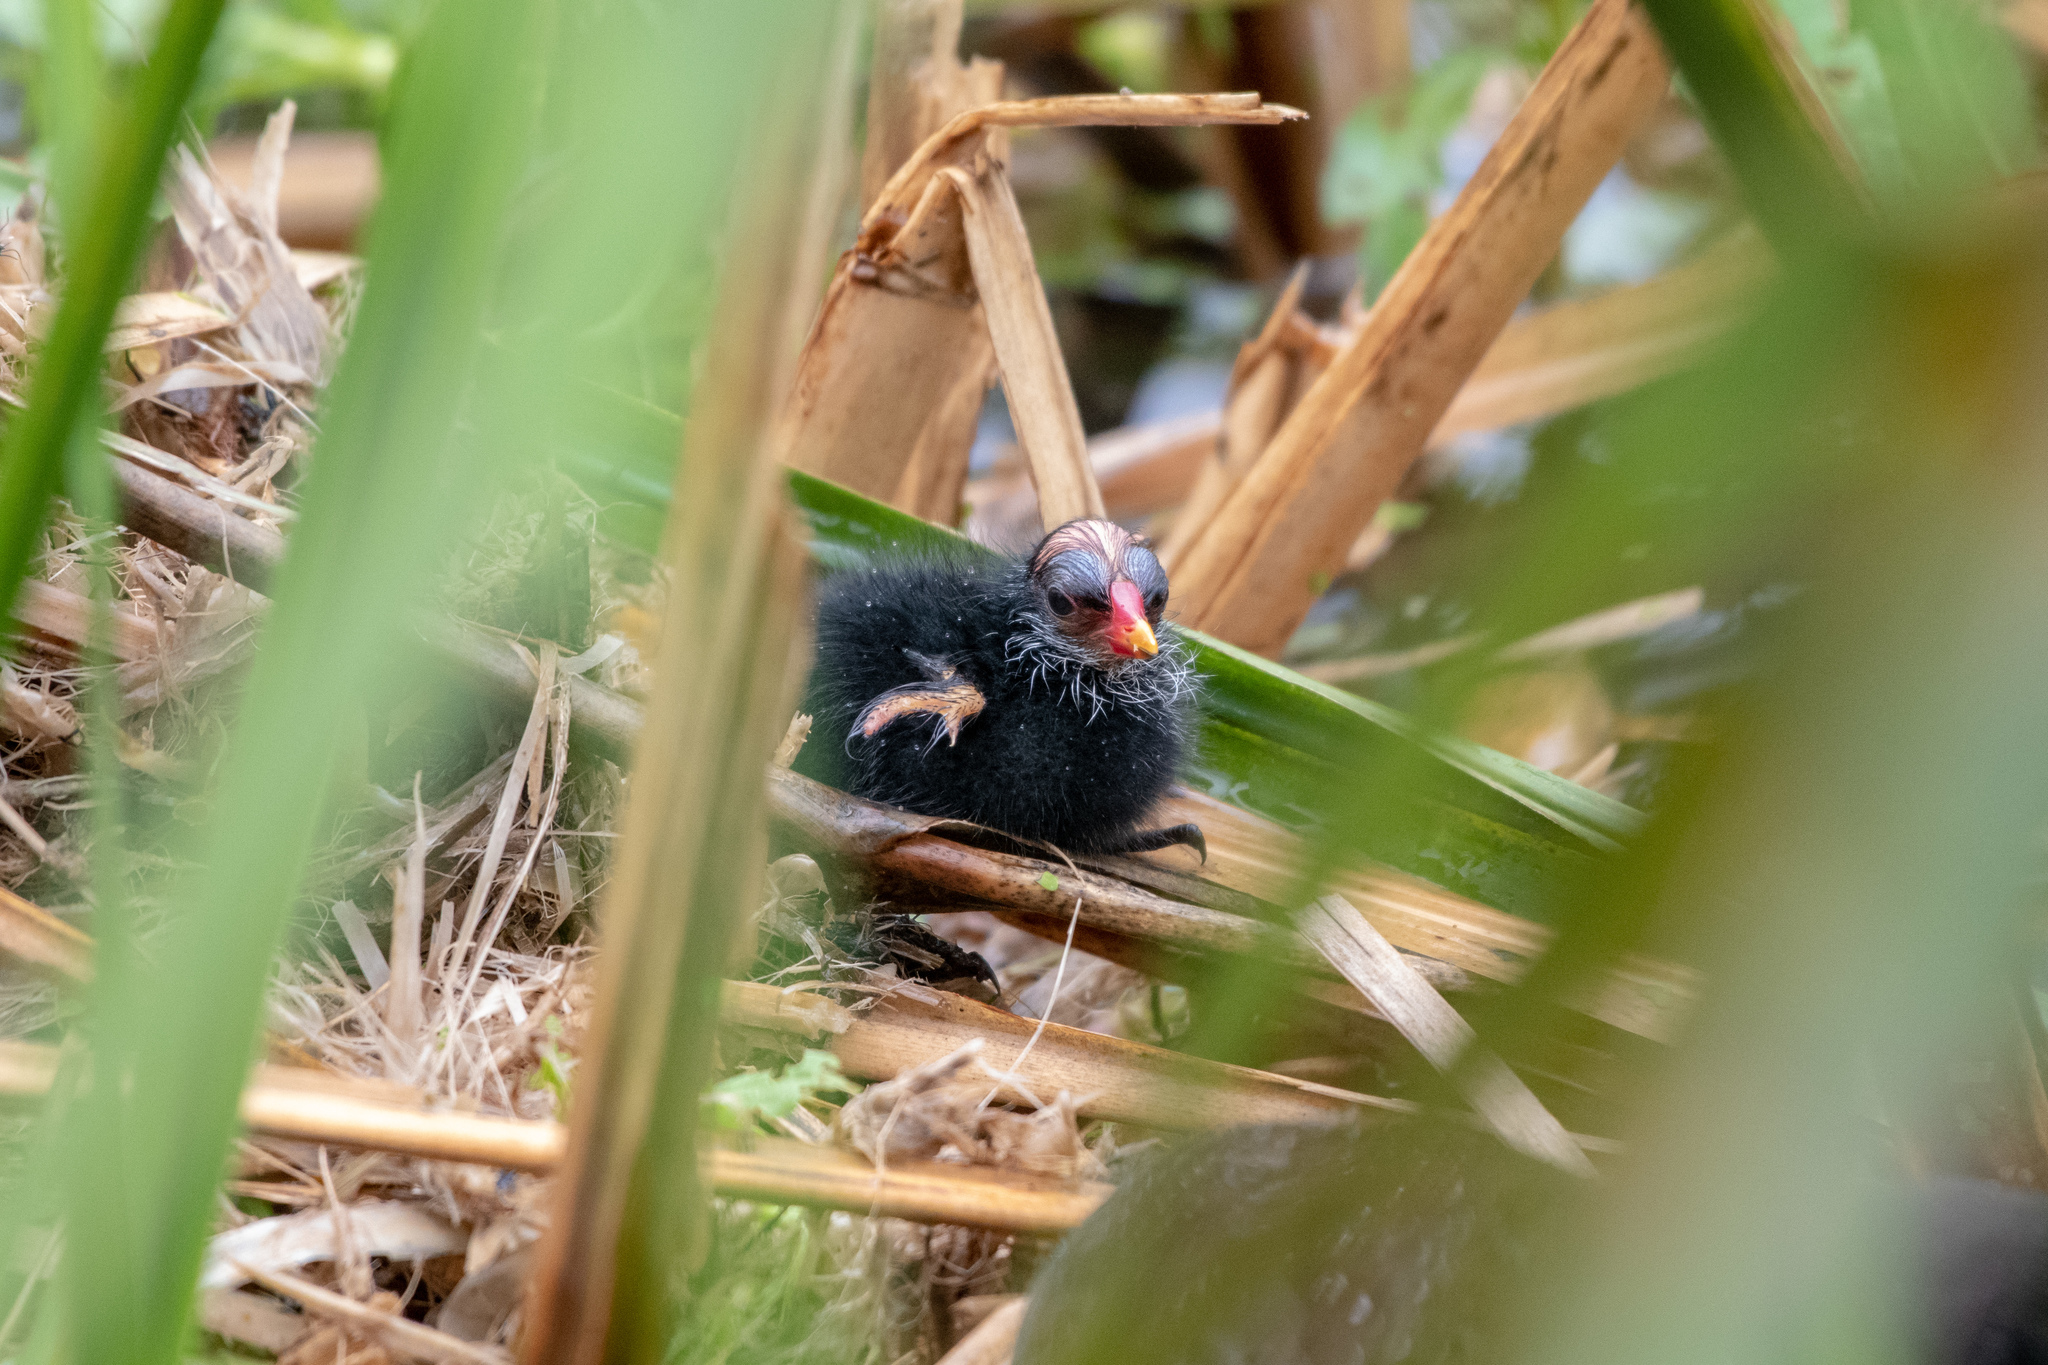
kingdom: Animalia
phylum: Chordata
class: Aves
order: Gruiformes
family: Rallidae
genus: Porphyrio
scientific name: Porphyrio martinica
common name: Purple gallinule
